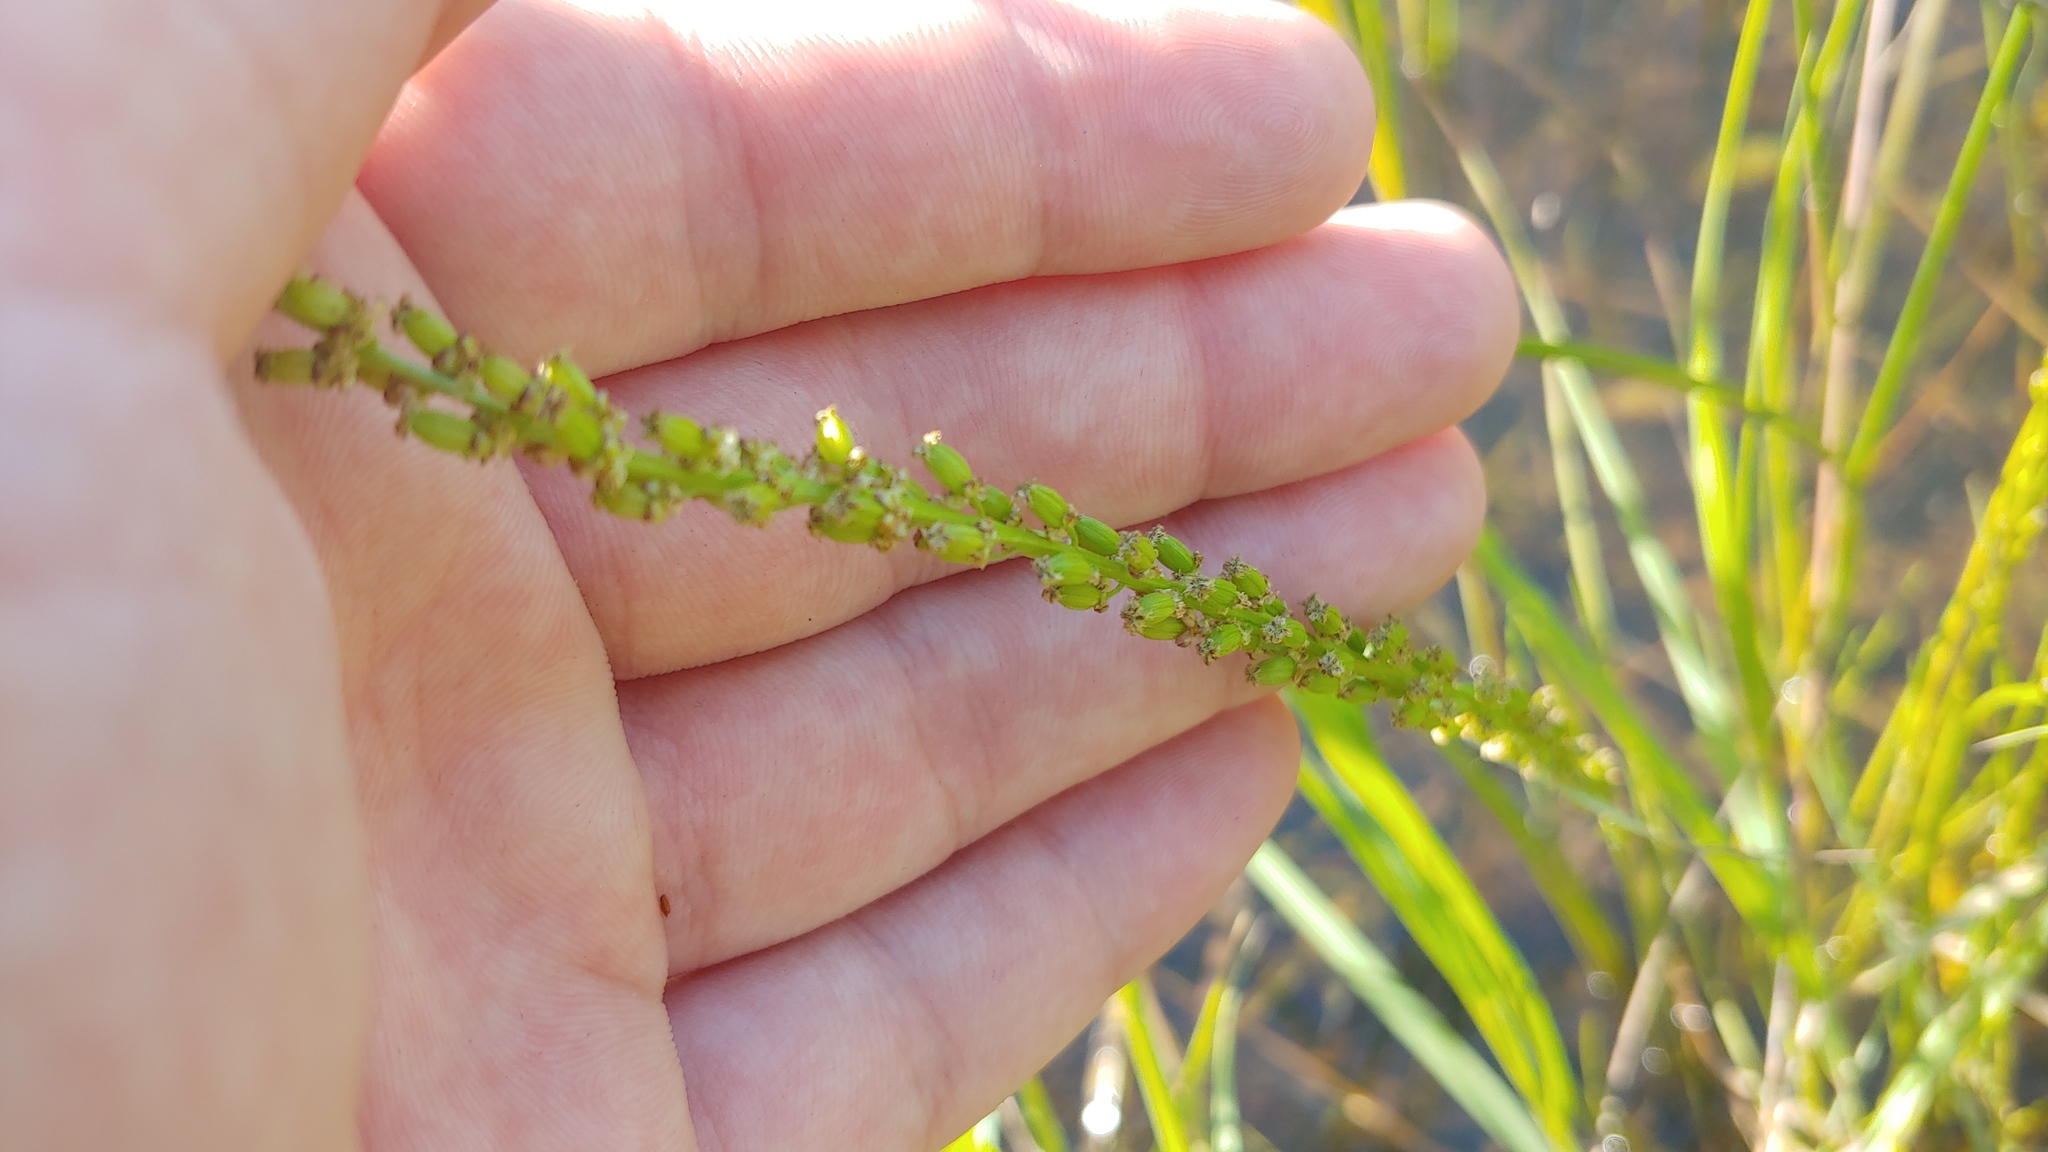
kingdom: Plantae
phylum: Tracheophyta
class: Liliopsida
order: Alismatales
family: Juncaginaceae
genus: Triglochin
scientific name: Triglochin maritima
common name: Sea arrowgrass
